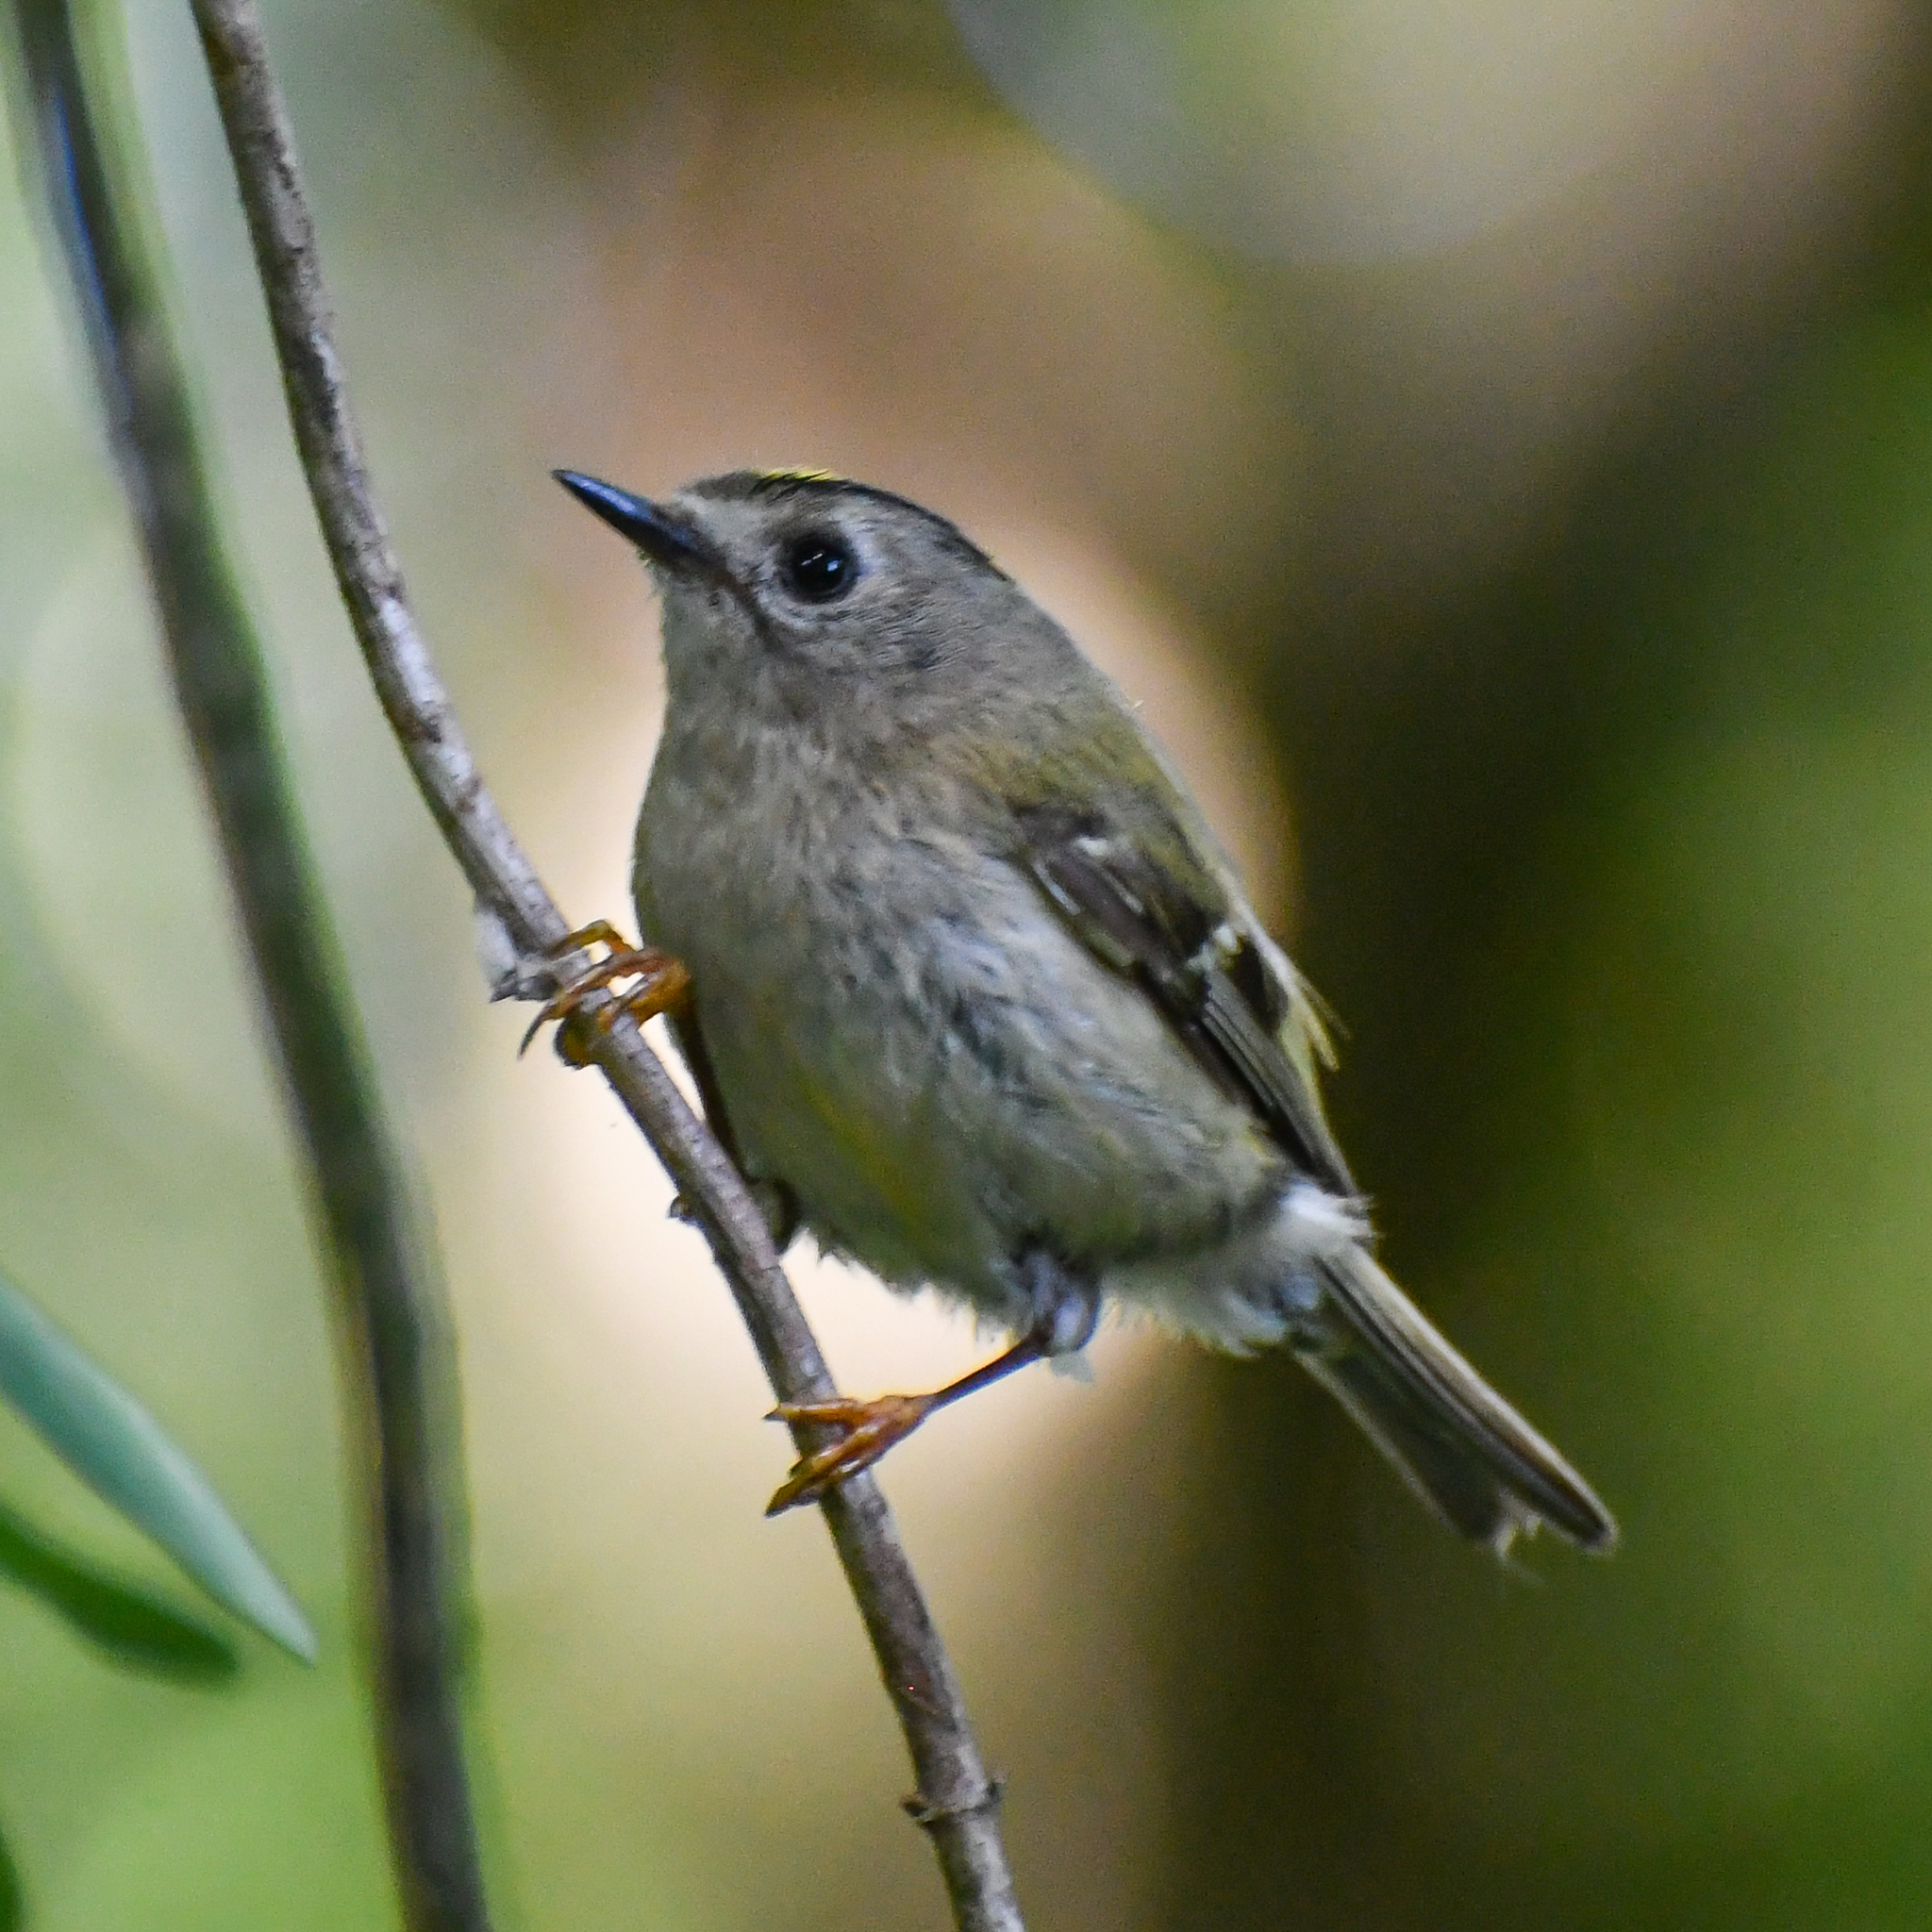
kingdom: Animalia
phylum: Chordata
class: Aves
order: Passeriformes
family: Regulidae
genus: Regulus
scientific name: Regulus regulus
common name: Goldcrest
